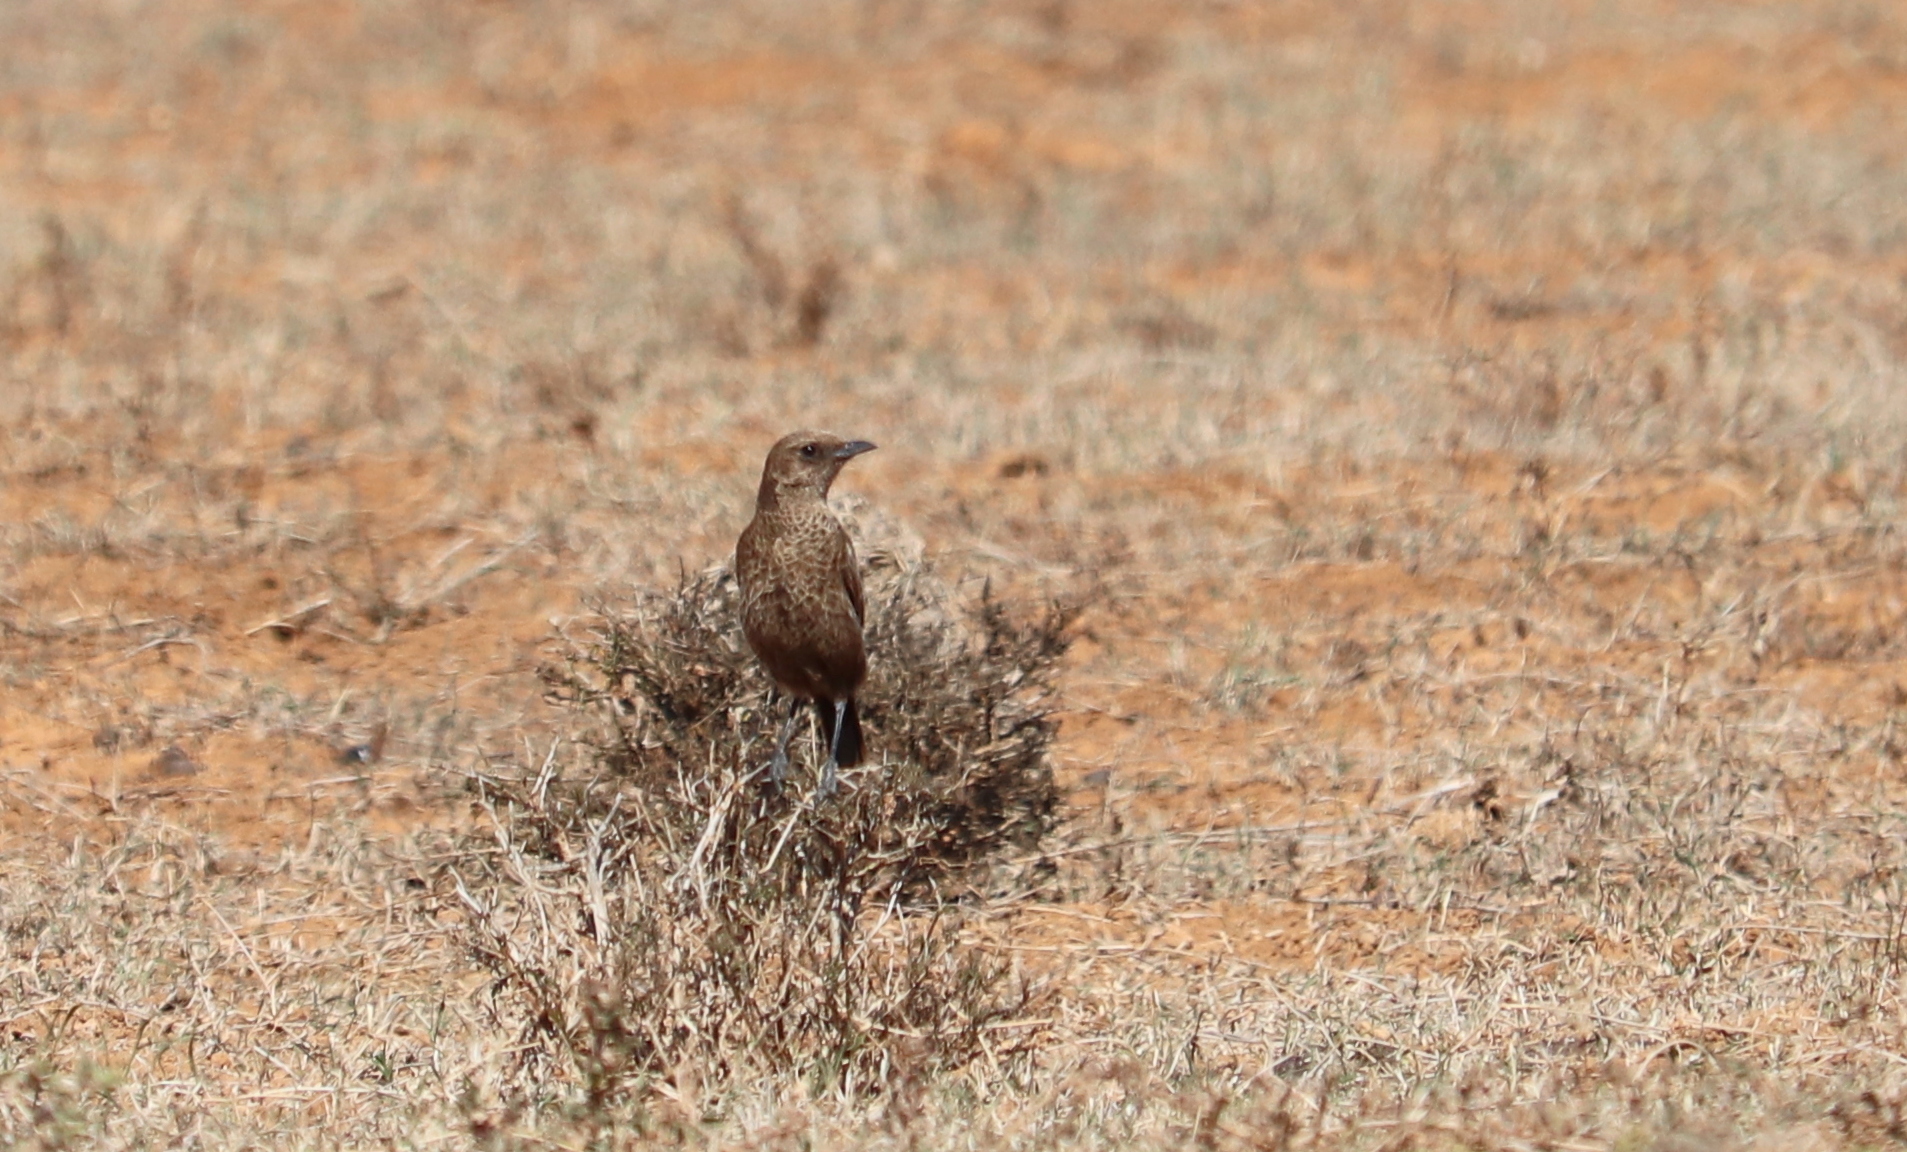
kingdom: Animalia
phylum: Chordata
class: Aves
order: Passeriformes
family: Muscicapidae
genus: Myrmecocichla
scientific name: Myrmecocichla formicivora
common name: Ant-eating chat
